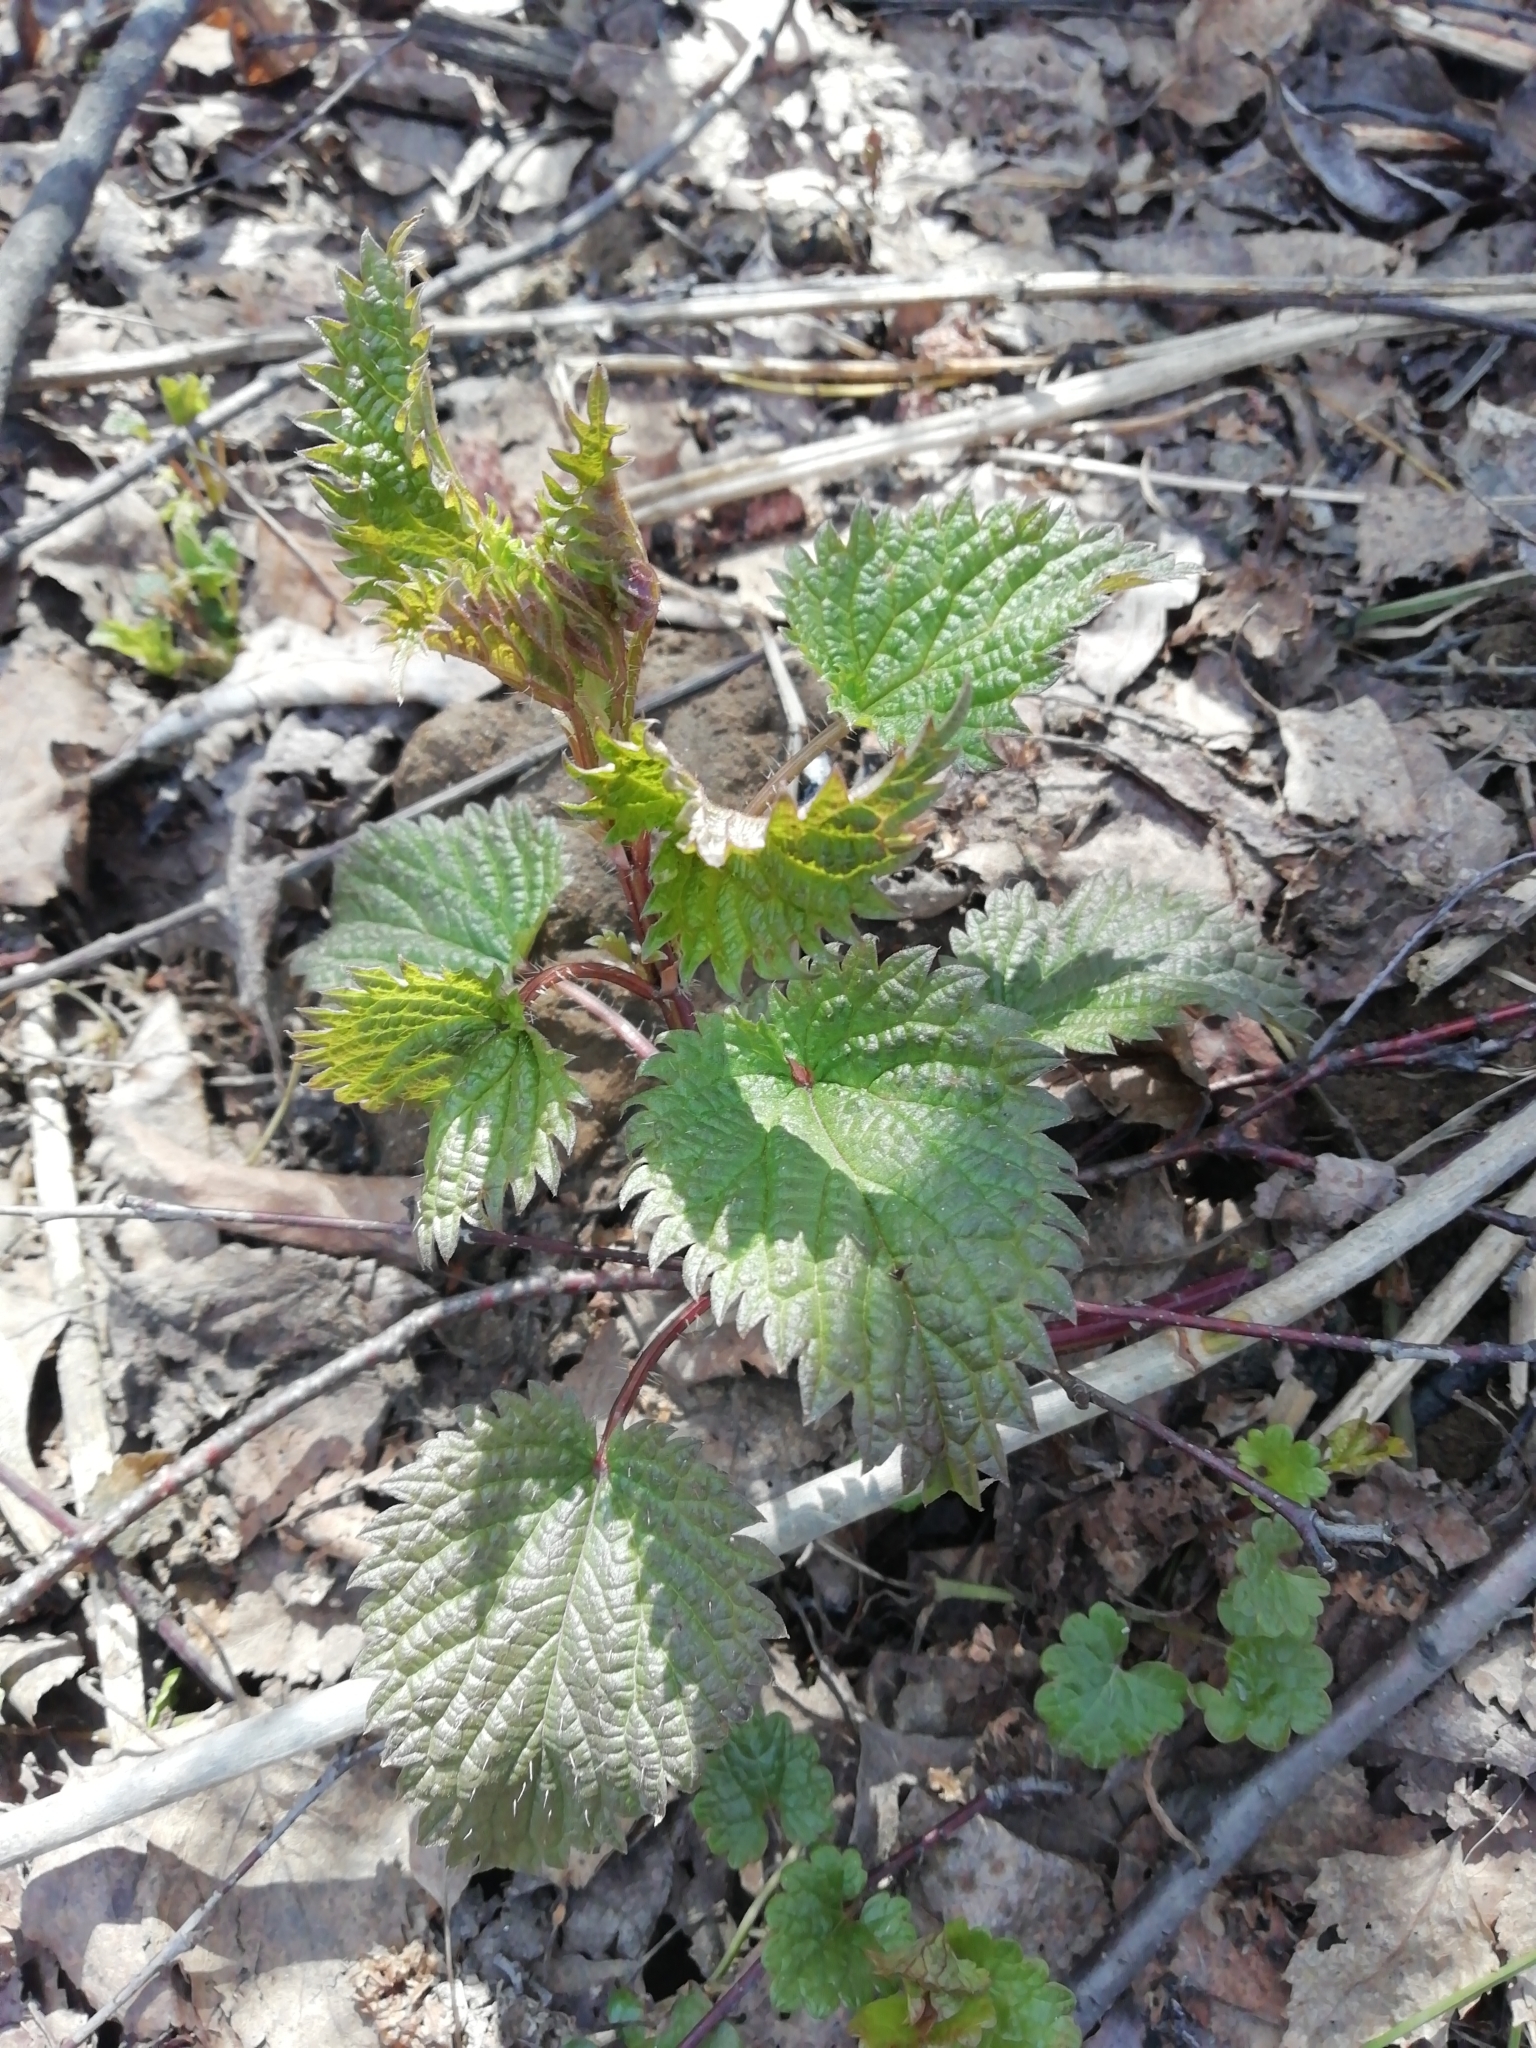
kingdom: Plantae
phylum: Tracheophyta
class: Magnoliopsida
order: Rosales
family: Urticaceae
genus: Urtica
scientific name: Urtica dioica
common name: Common nettle
